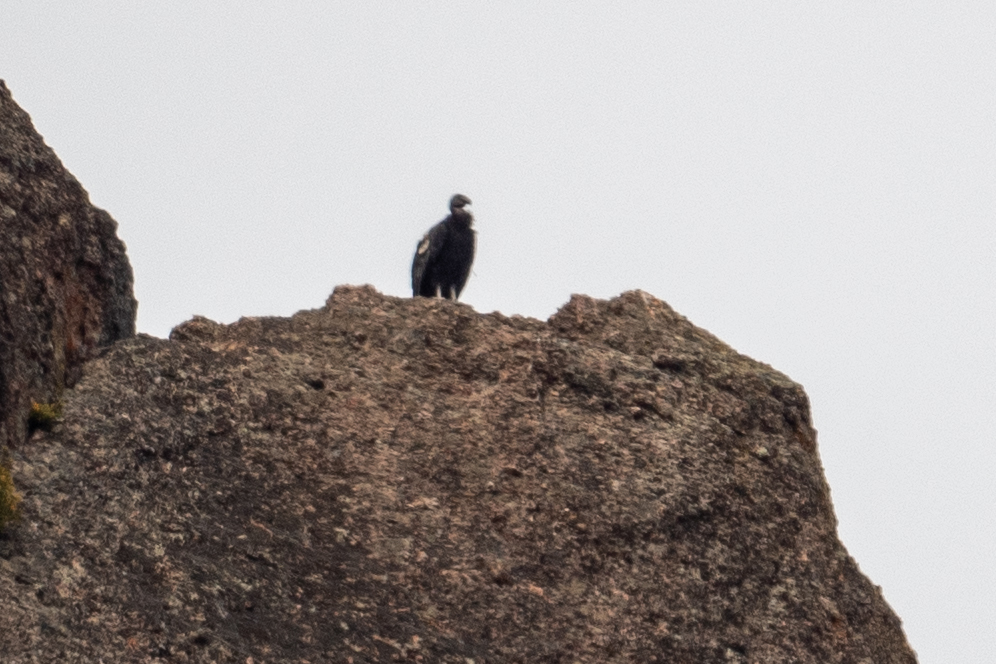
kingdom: Animalia
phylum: Chordata
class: Aves
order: Accipitriformes
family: Cathartidae
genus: Gymnogyps
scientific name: Gymnogyps californianus
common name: California condor
